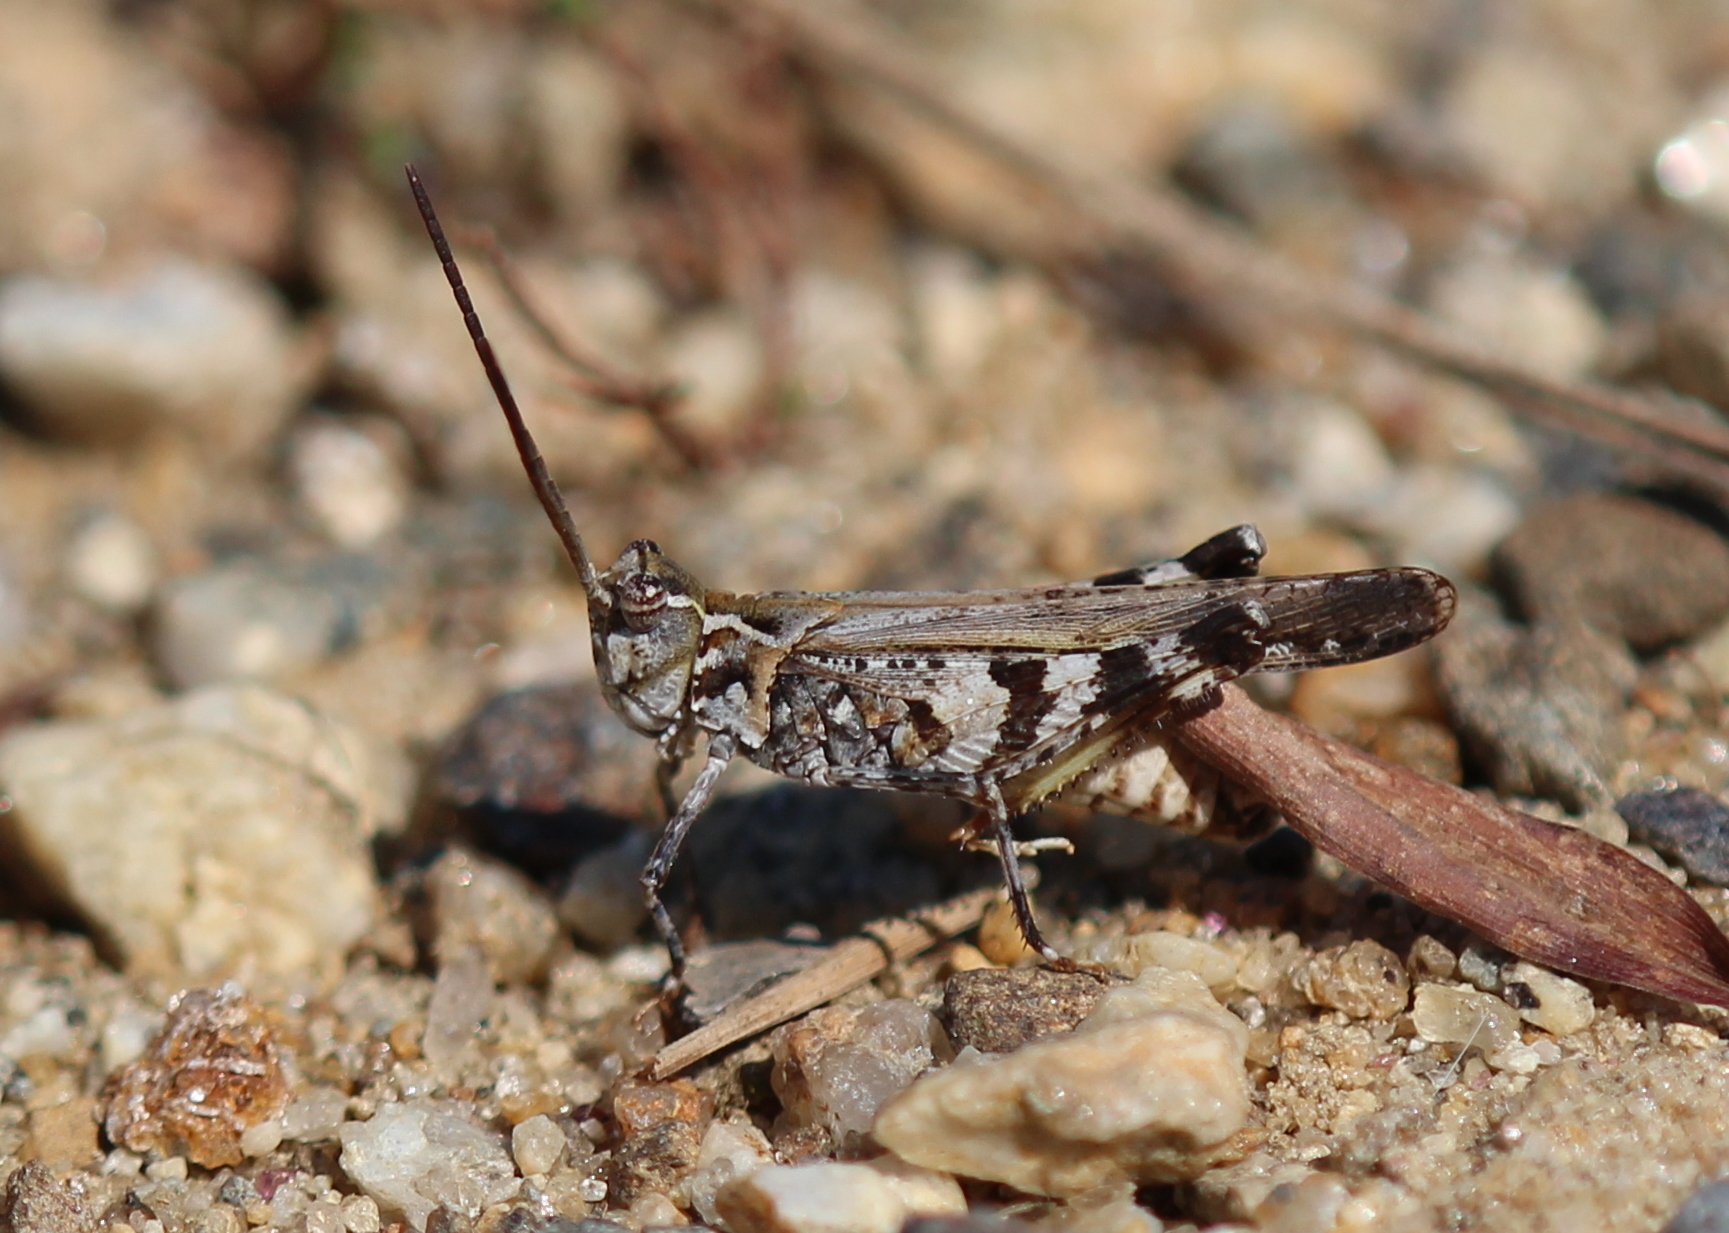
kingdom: Animalia
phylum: Arthropoda
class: Insecta
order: Orthoptera
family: Acrididae
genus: Psinidia
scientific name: Psinidia fenestralis
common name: Long-horned locust
